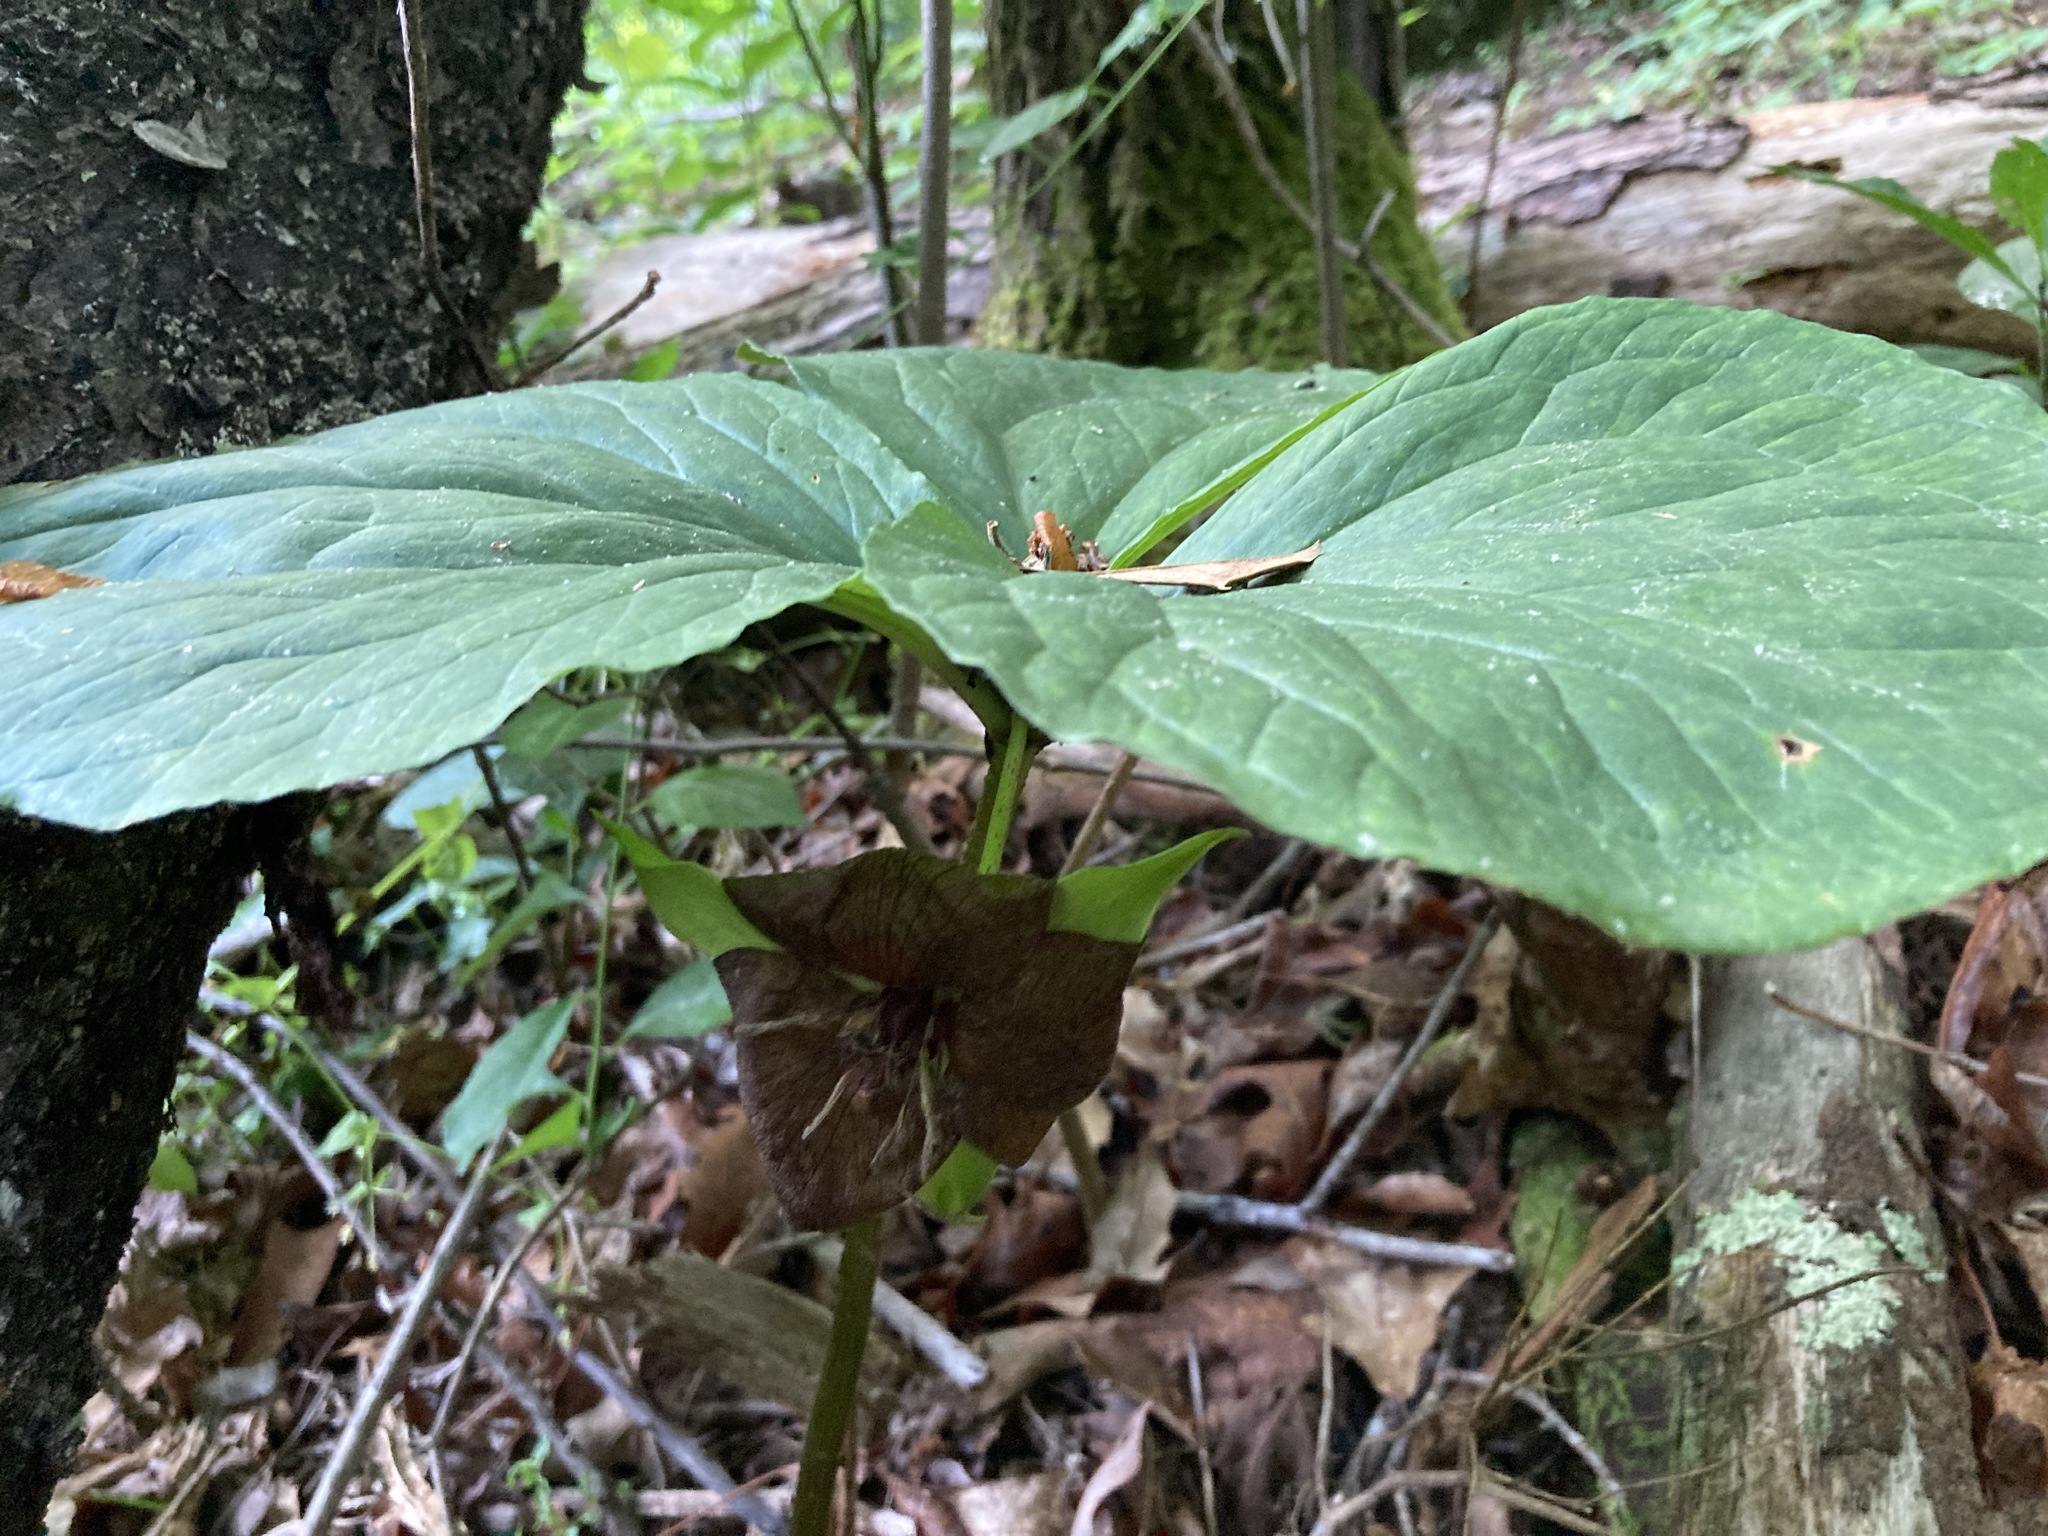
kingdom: Plantae
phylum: Tracheophyta
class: Liliopsida
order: Liliales
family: Melanthiaceae
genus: Trillium
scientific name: Trillium vaseyi
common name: Sweet trillium
